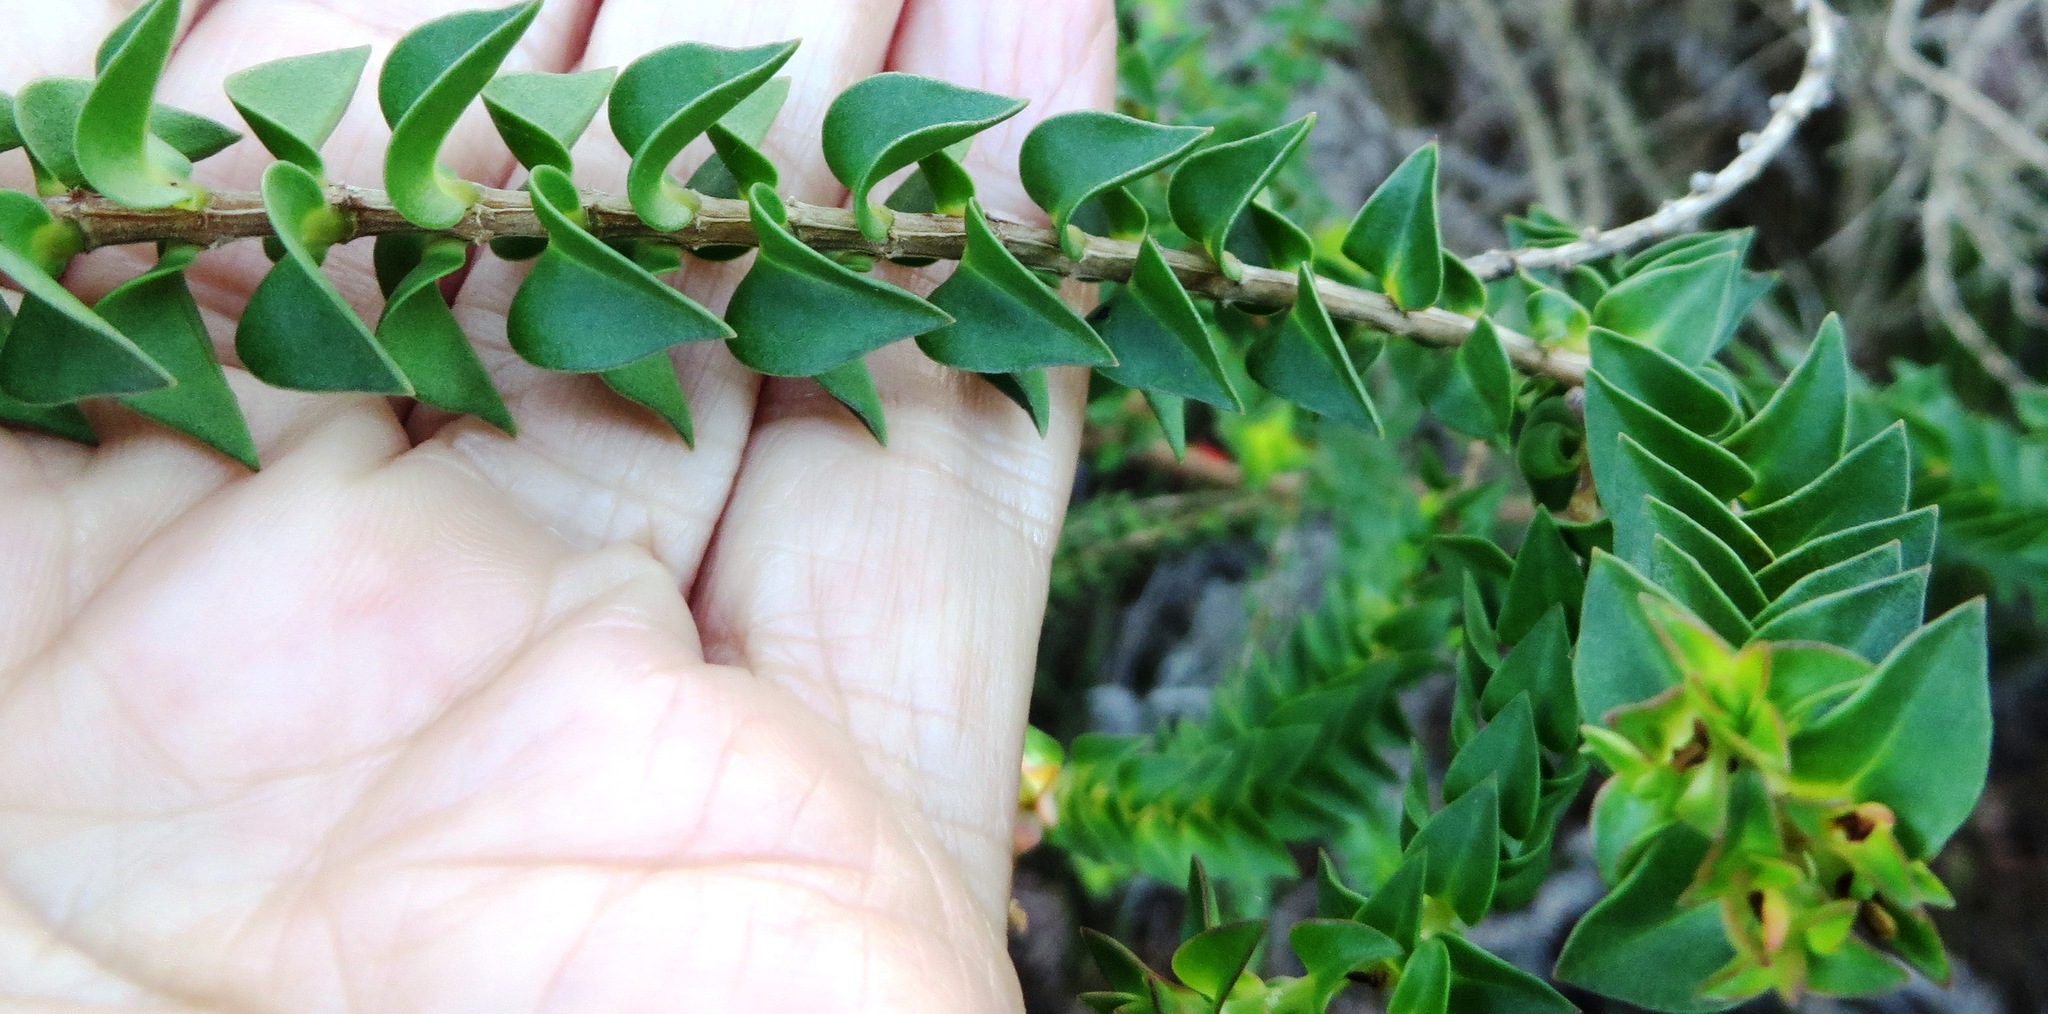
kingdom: Plantae
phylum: Tracheophyta
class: Magnoliopsida
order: Myrtales
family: Penaeaceae
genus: Penaea
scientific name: Penaea cneorum
